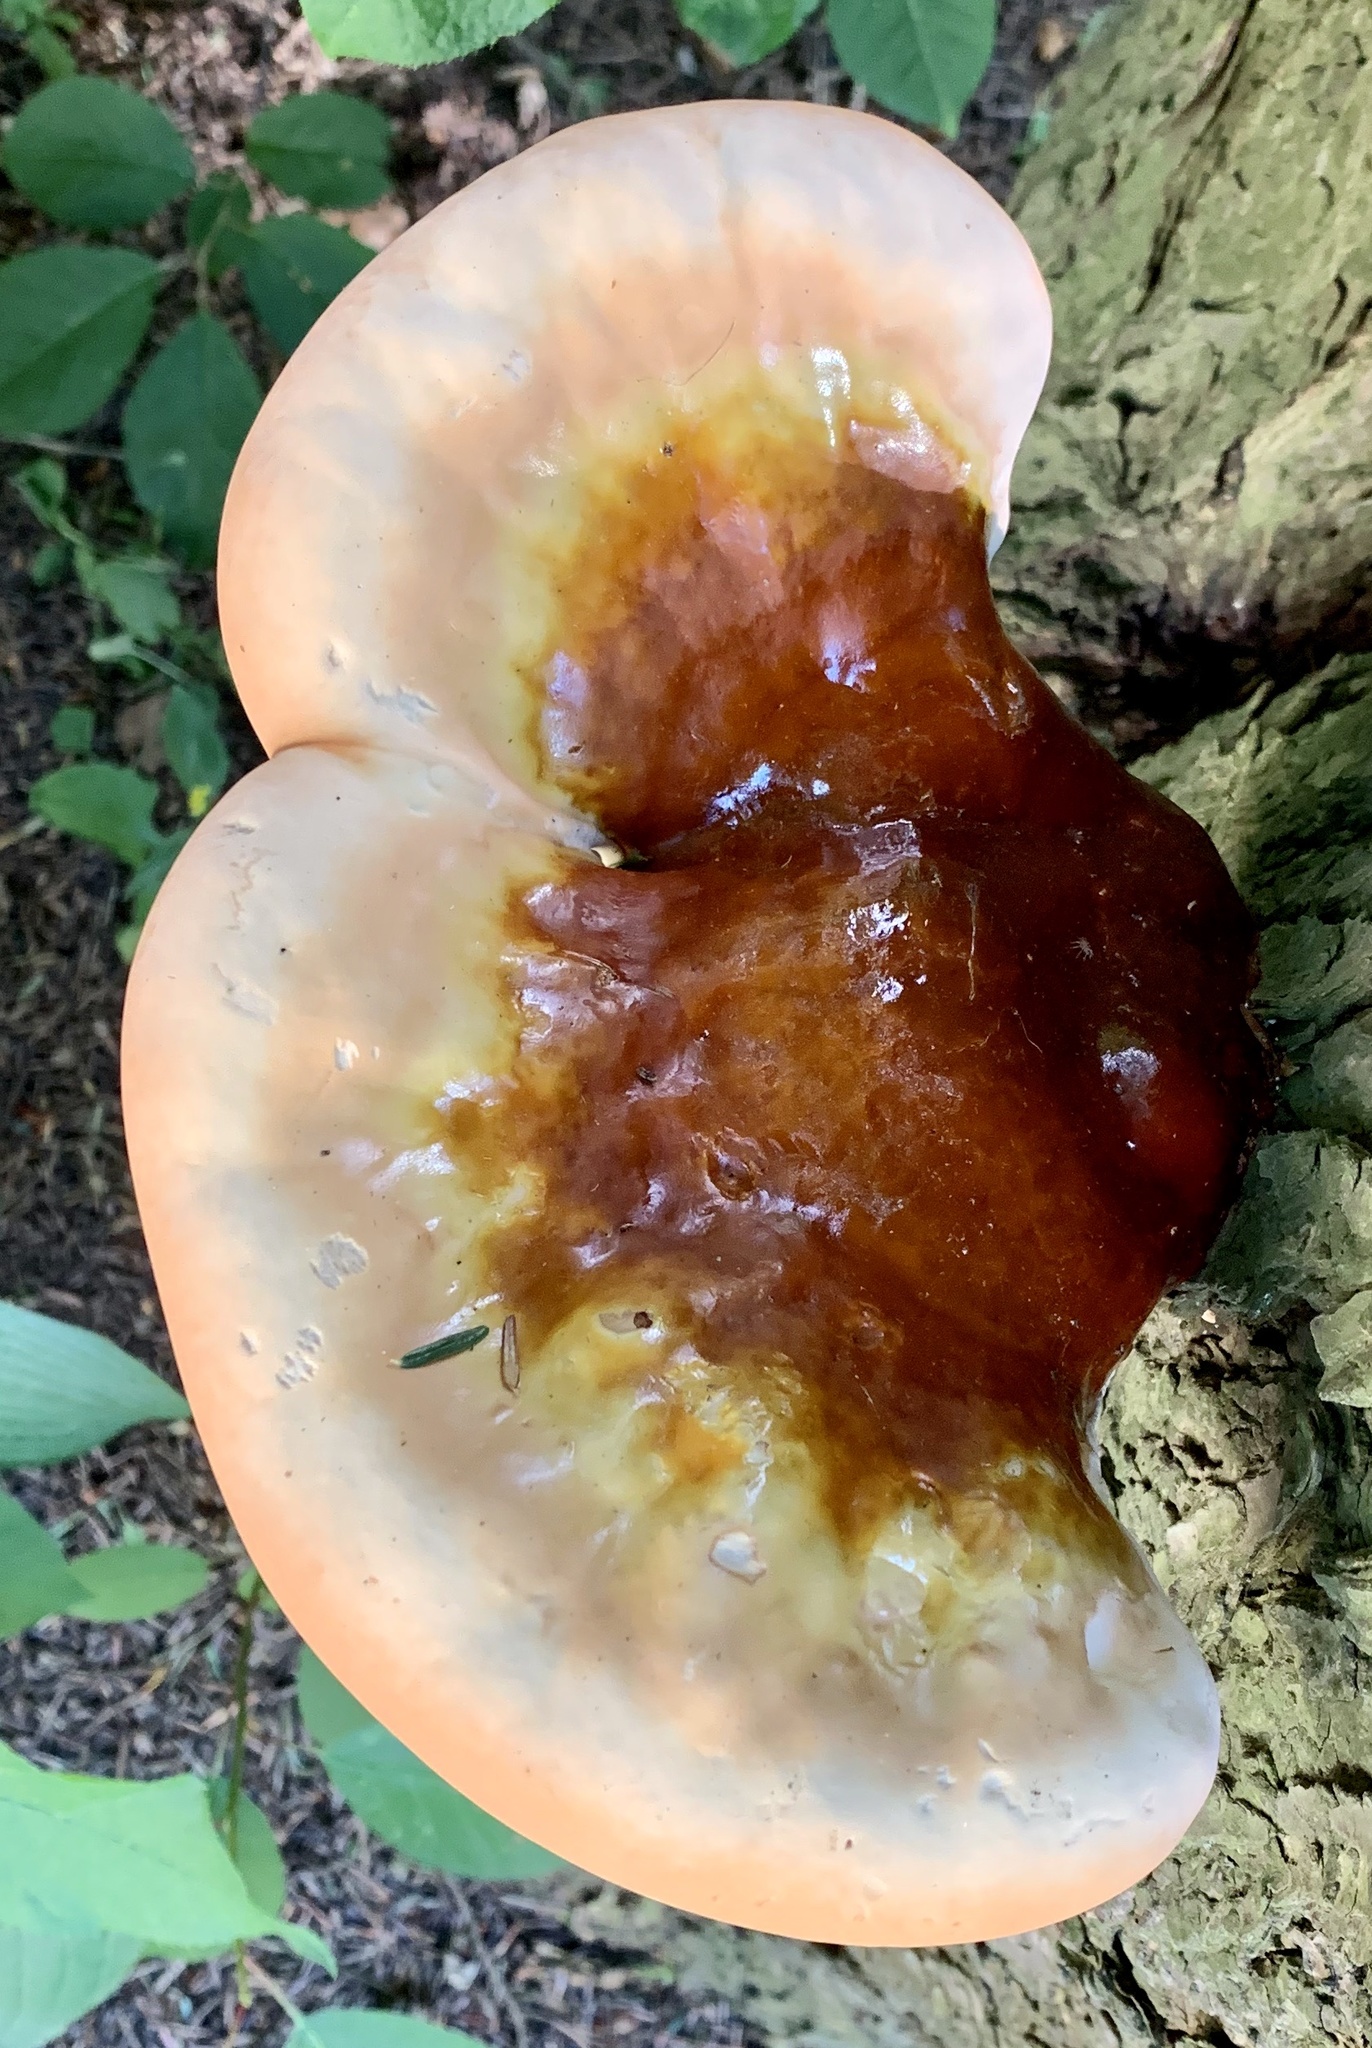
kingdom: Fungi
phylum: Basidiomycota
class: Agaricomycetes
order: Polyporales
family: Polyporaceae
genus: Ganoderma
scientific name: Ganoderma tsugae
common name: Hemlock varnish shelf
